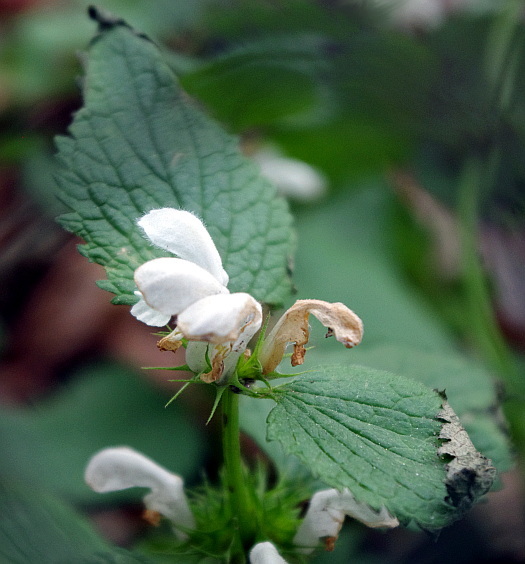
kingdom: Plantae
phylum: Tracheophyta
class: Magnoliopsida
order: Lamiales
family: Lamiaceae
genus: Lamium
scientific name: Lamium album
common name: White dead-nettle
